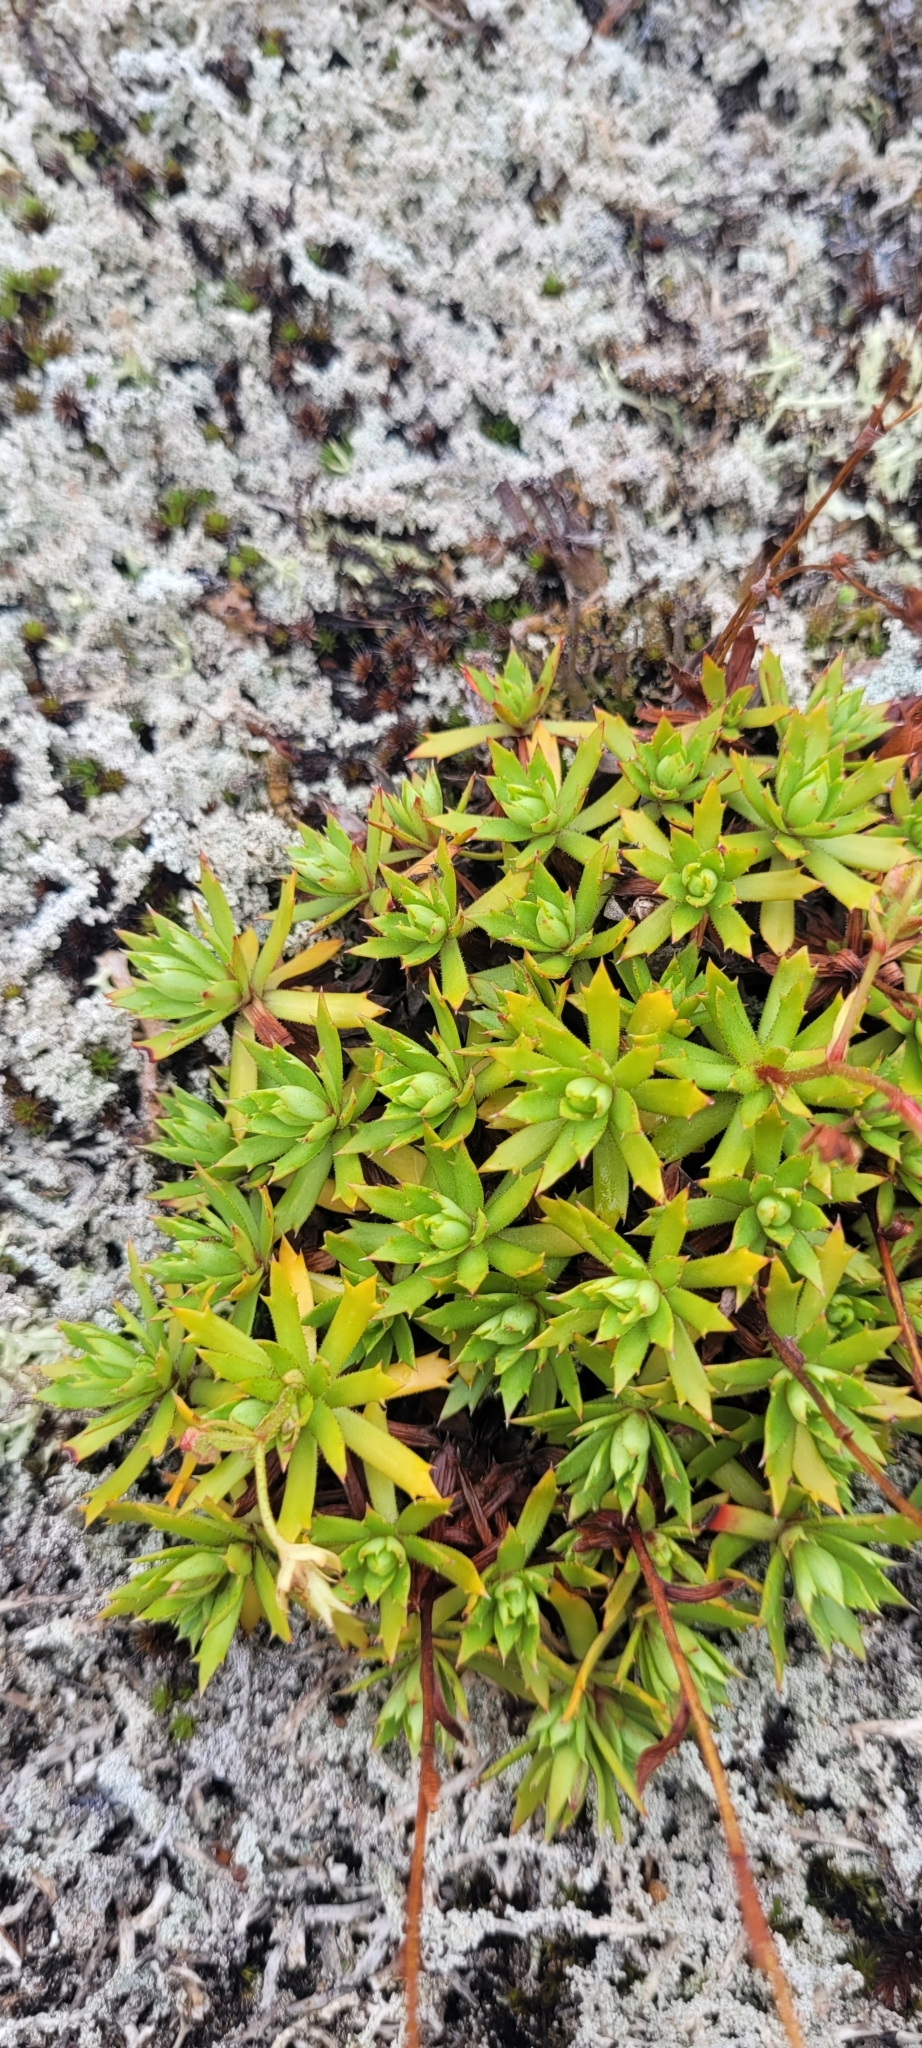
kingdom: Plantae
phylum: Tracheophyta
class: Magnoliopsida
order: Saxifragales
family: Saxifragaceae
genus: Saxifraga
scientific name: Saxifraga tricuspidata
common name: Prickly saxifrage
